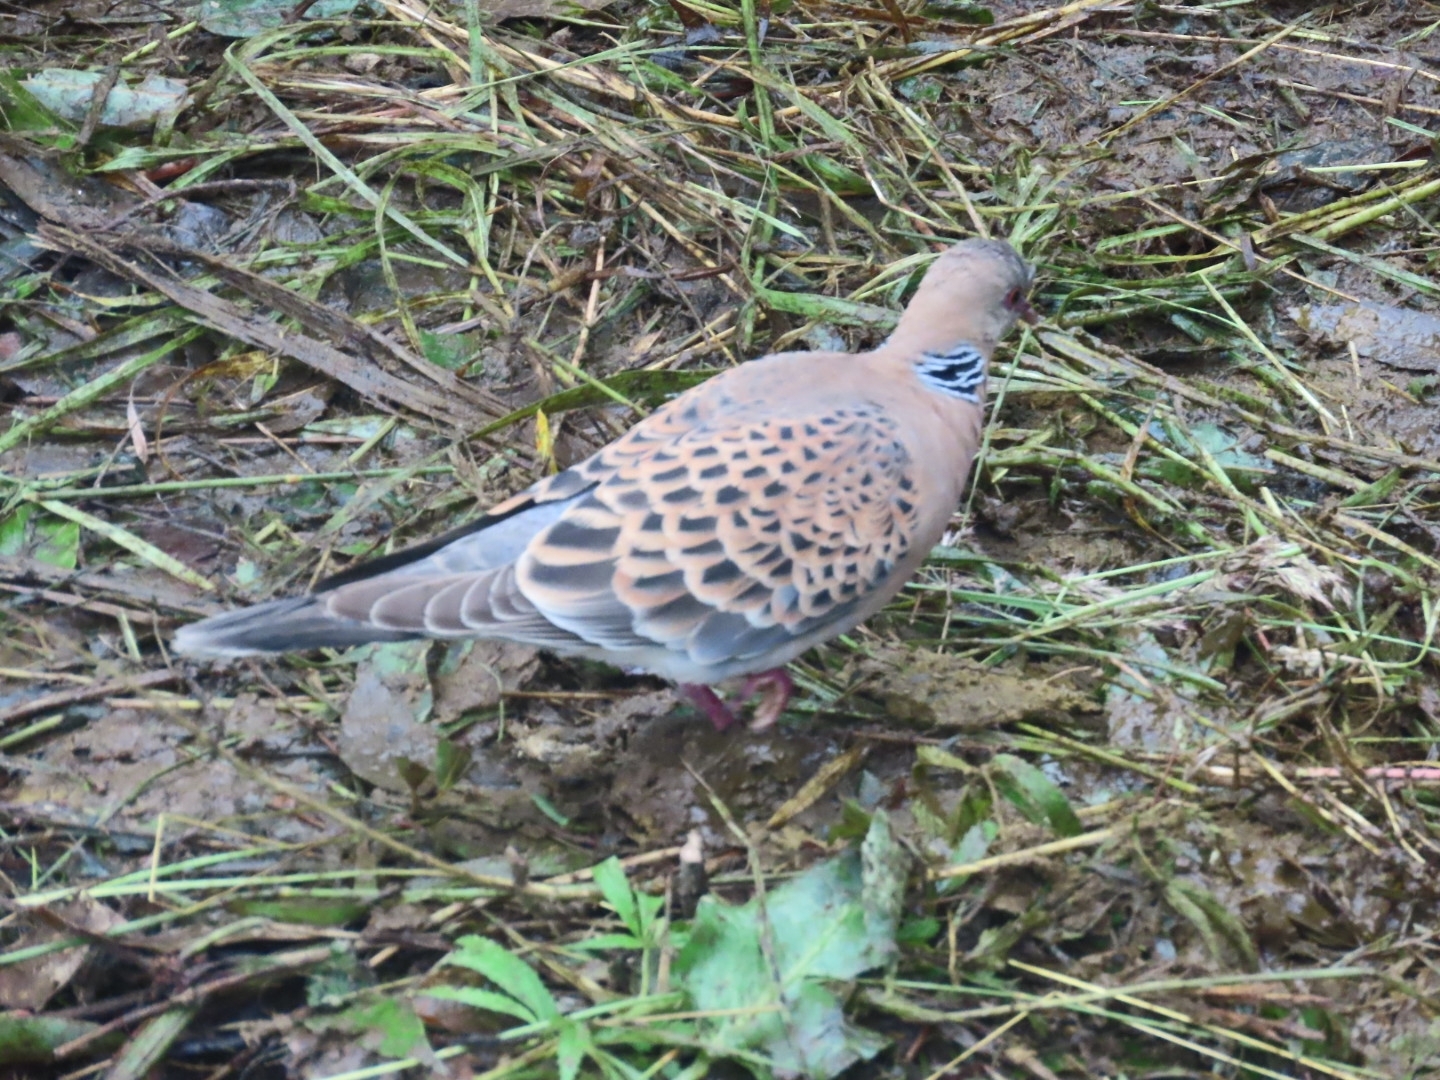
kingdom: Animalia
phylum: Chordata
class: Aves
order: Columbiformes
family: Columbidae
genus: Streptopelia
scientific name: Streptopelia orientalis
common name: Oriental turtle dove
